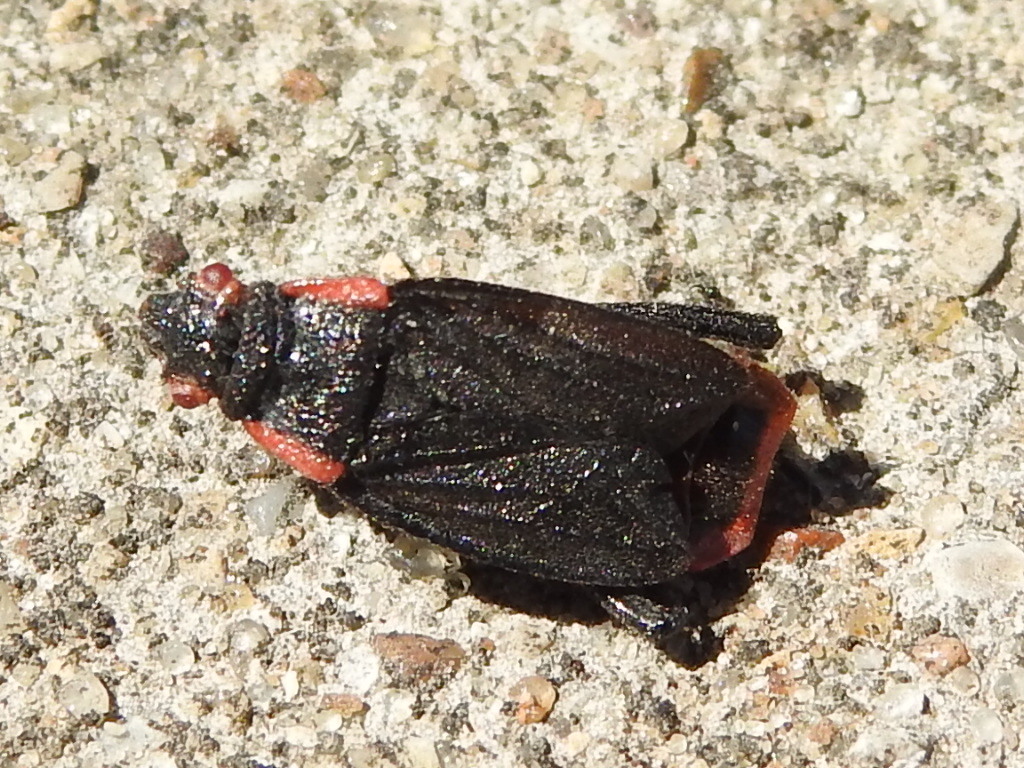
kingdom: Animalia
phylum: Arthropoda
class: Insecta
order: Hemiptera
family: Rhopalidae
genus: Jadera
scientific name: Jadera haematoloma
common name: Red-shouldered bug
